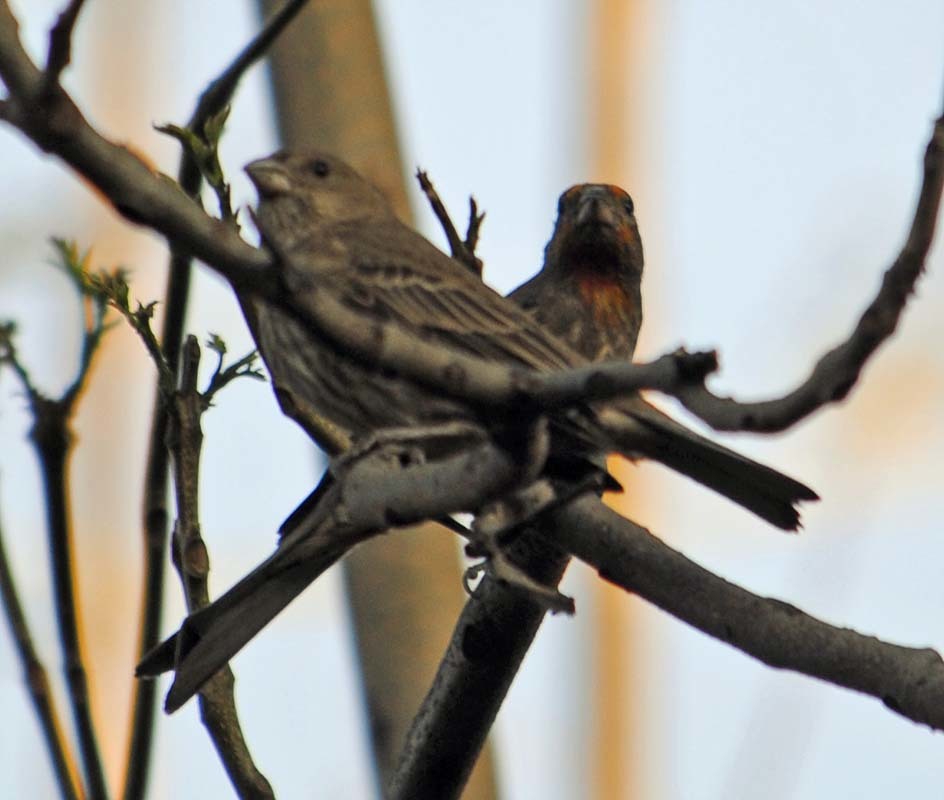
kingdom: Animalia
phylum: Chordata
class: Aves
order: Passeriformes
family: Fringillidae
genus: Haemorhous
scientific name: Haemorhous mexicanus
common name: House finch
